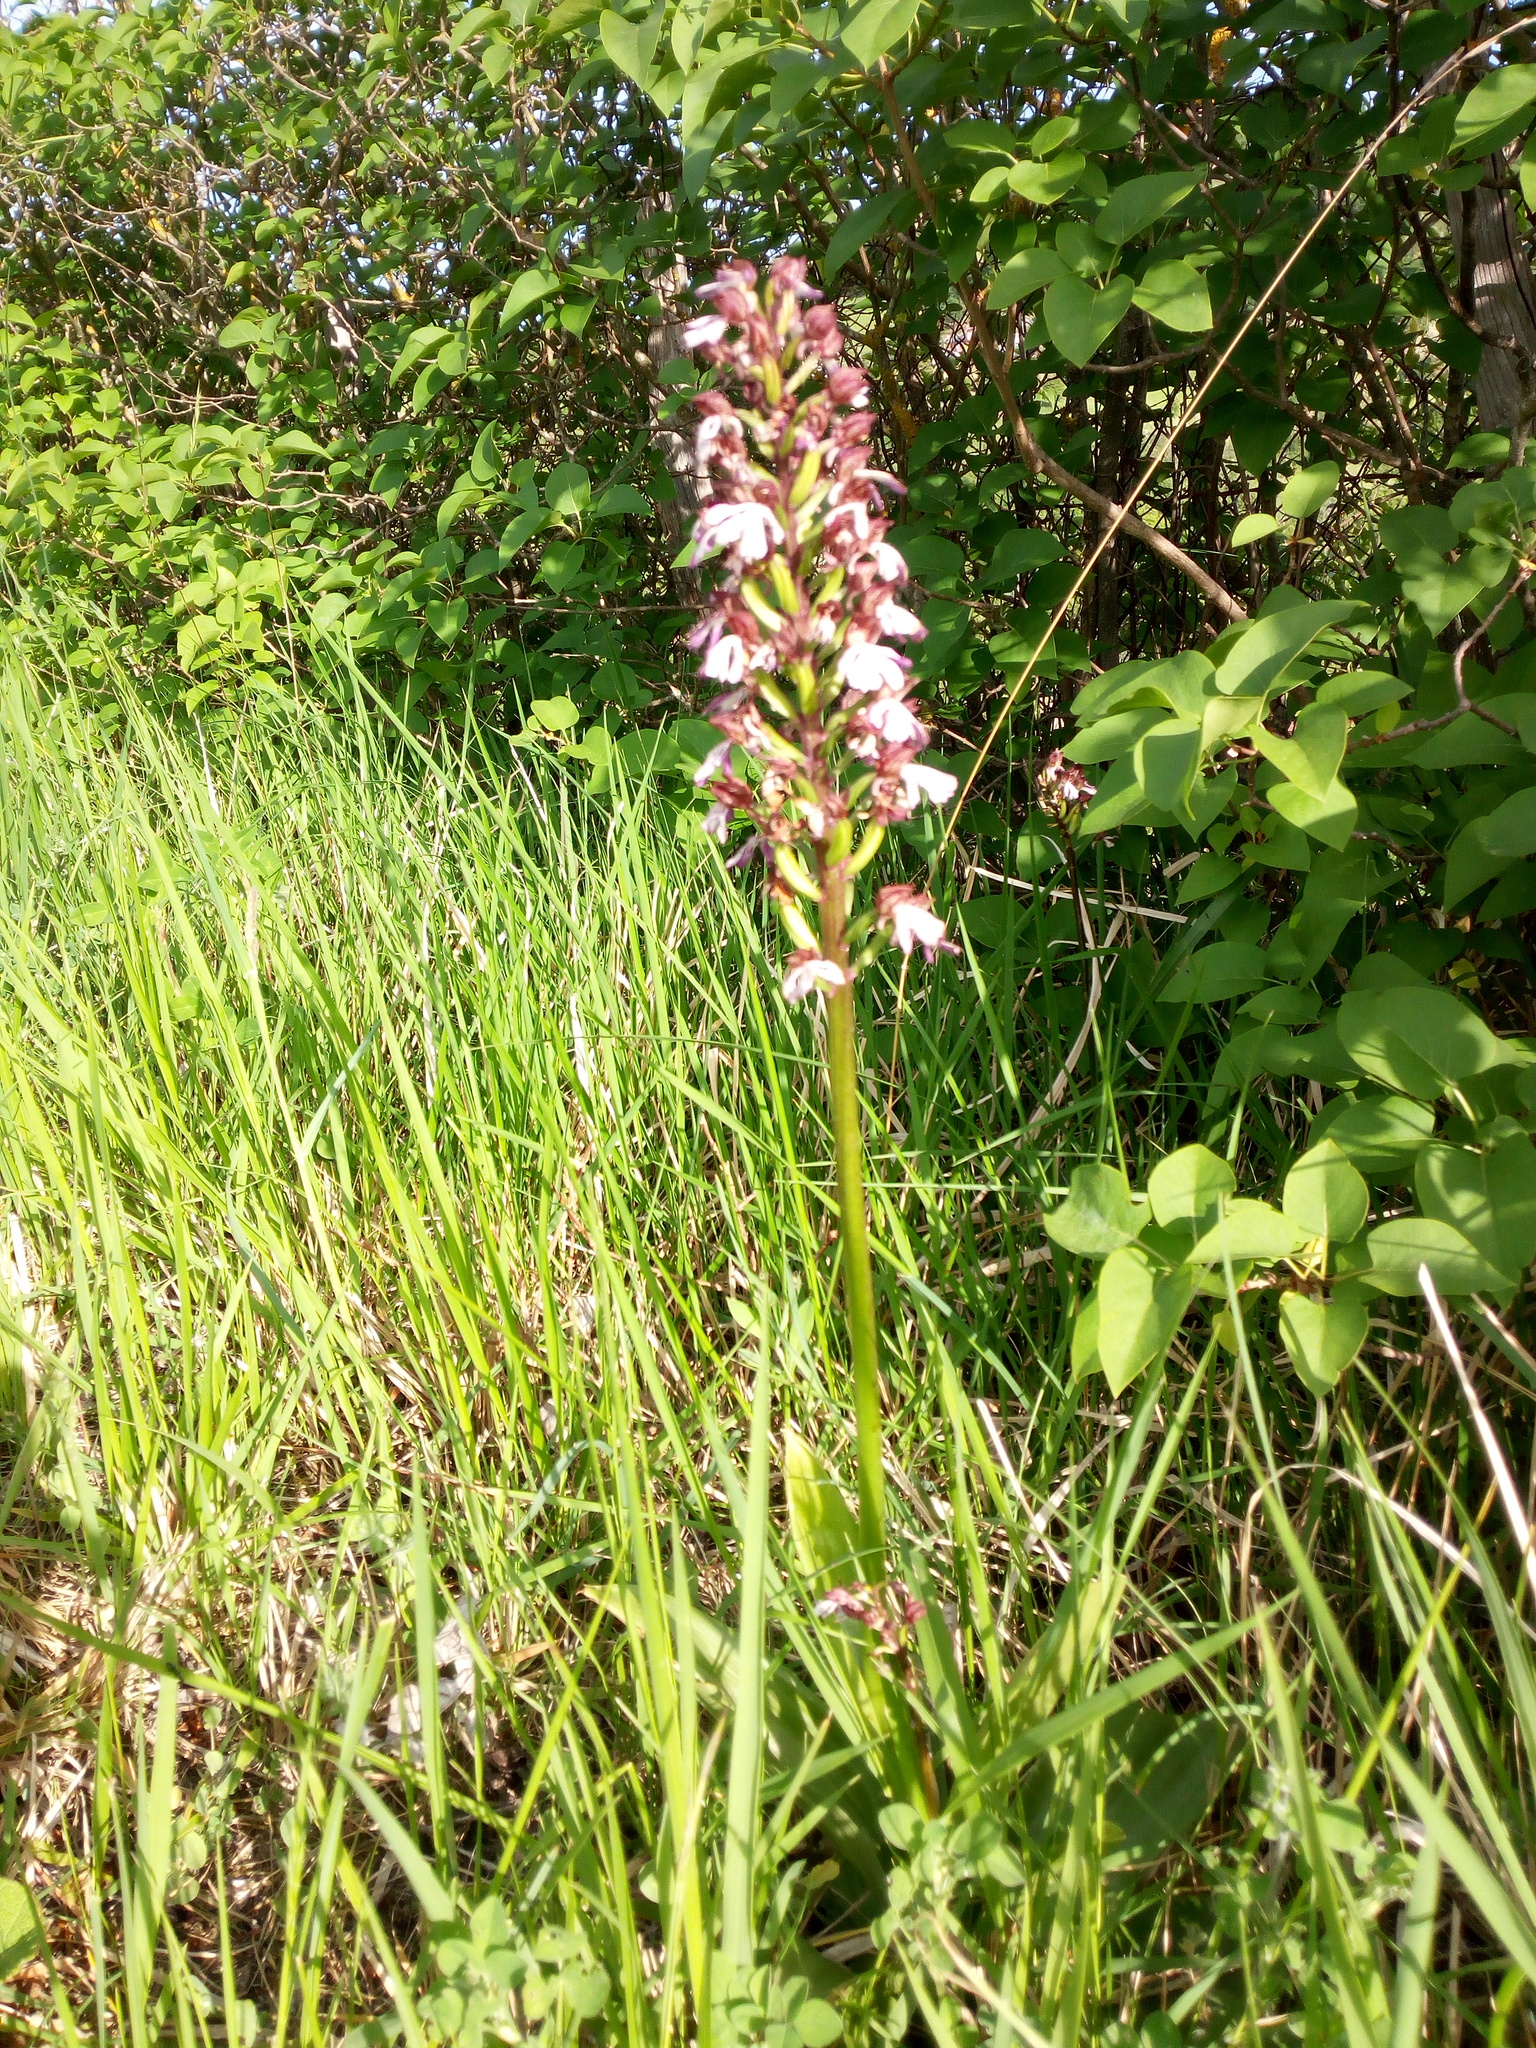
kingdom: Plantae
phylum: Tracheophyta
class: Liliopsida
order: Asparagales
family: Orchidaceae
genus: Orchis
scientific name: Orchis purpurea
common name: Lady orchid
